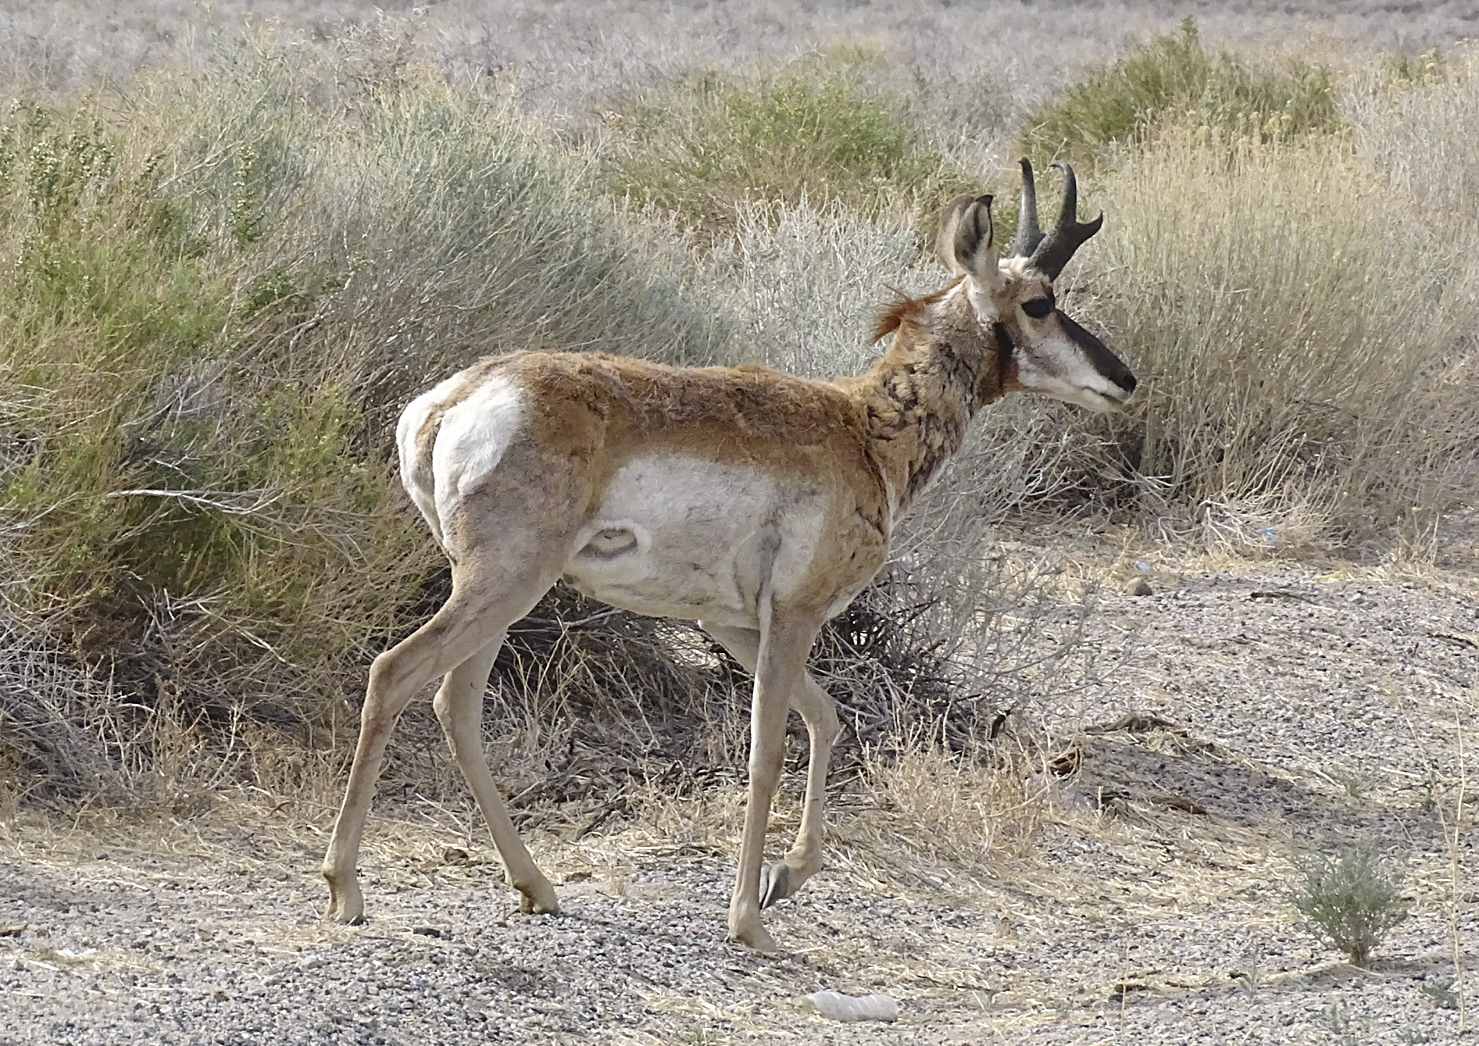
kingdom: Animalia
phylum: Chordata
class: Mammalia
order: Artiodactyla
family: Antilocapridae
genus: Antilocapra
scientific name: Antilocapra americana
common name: Pronghorn
